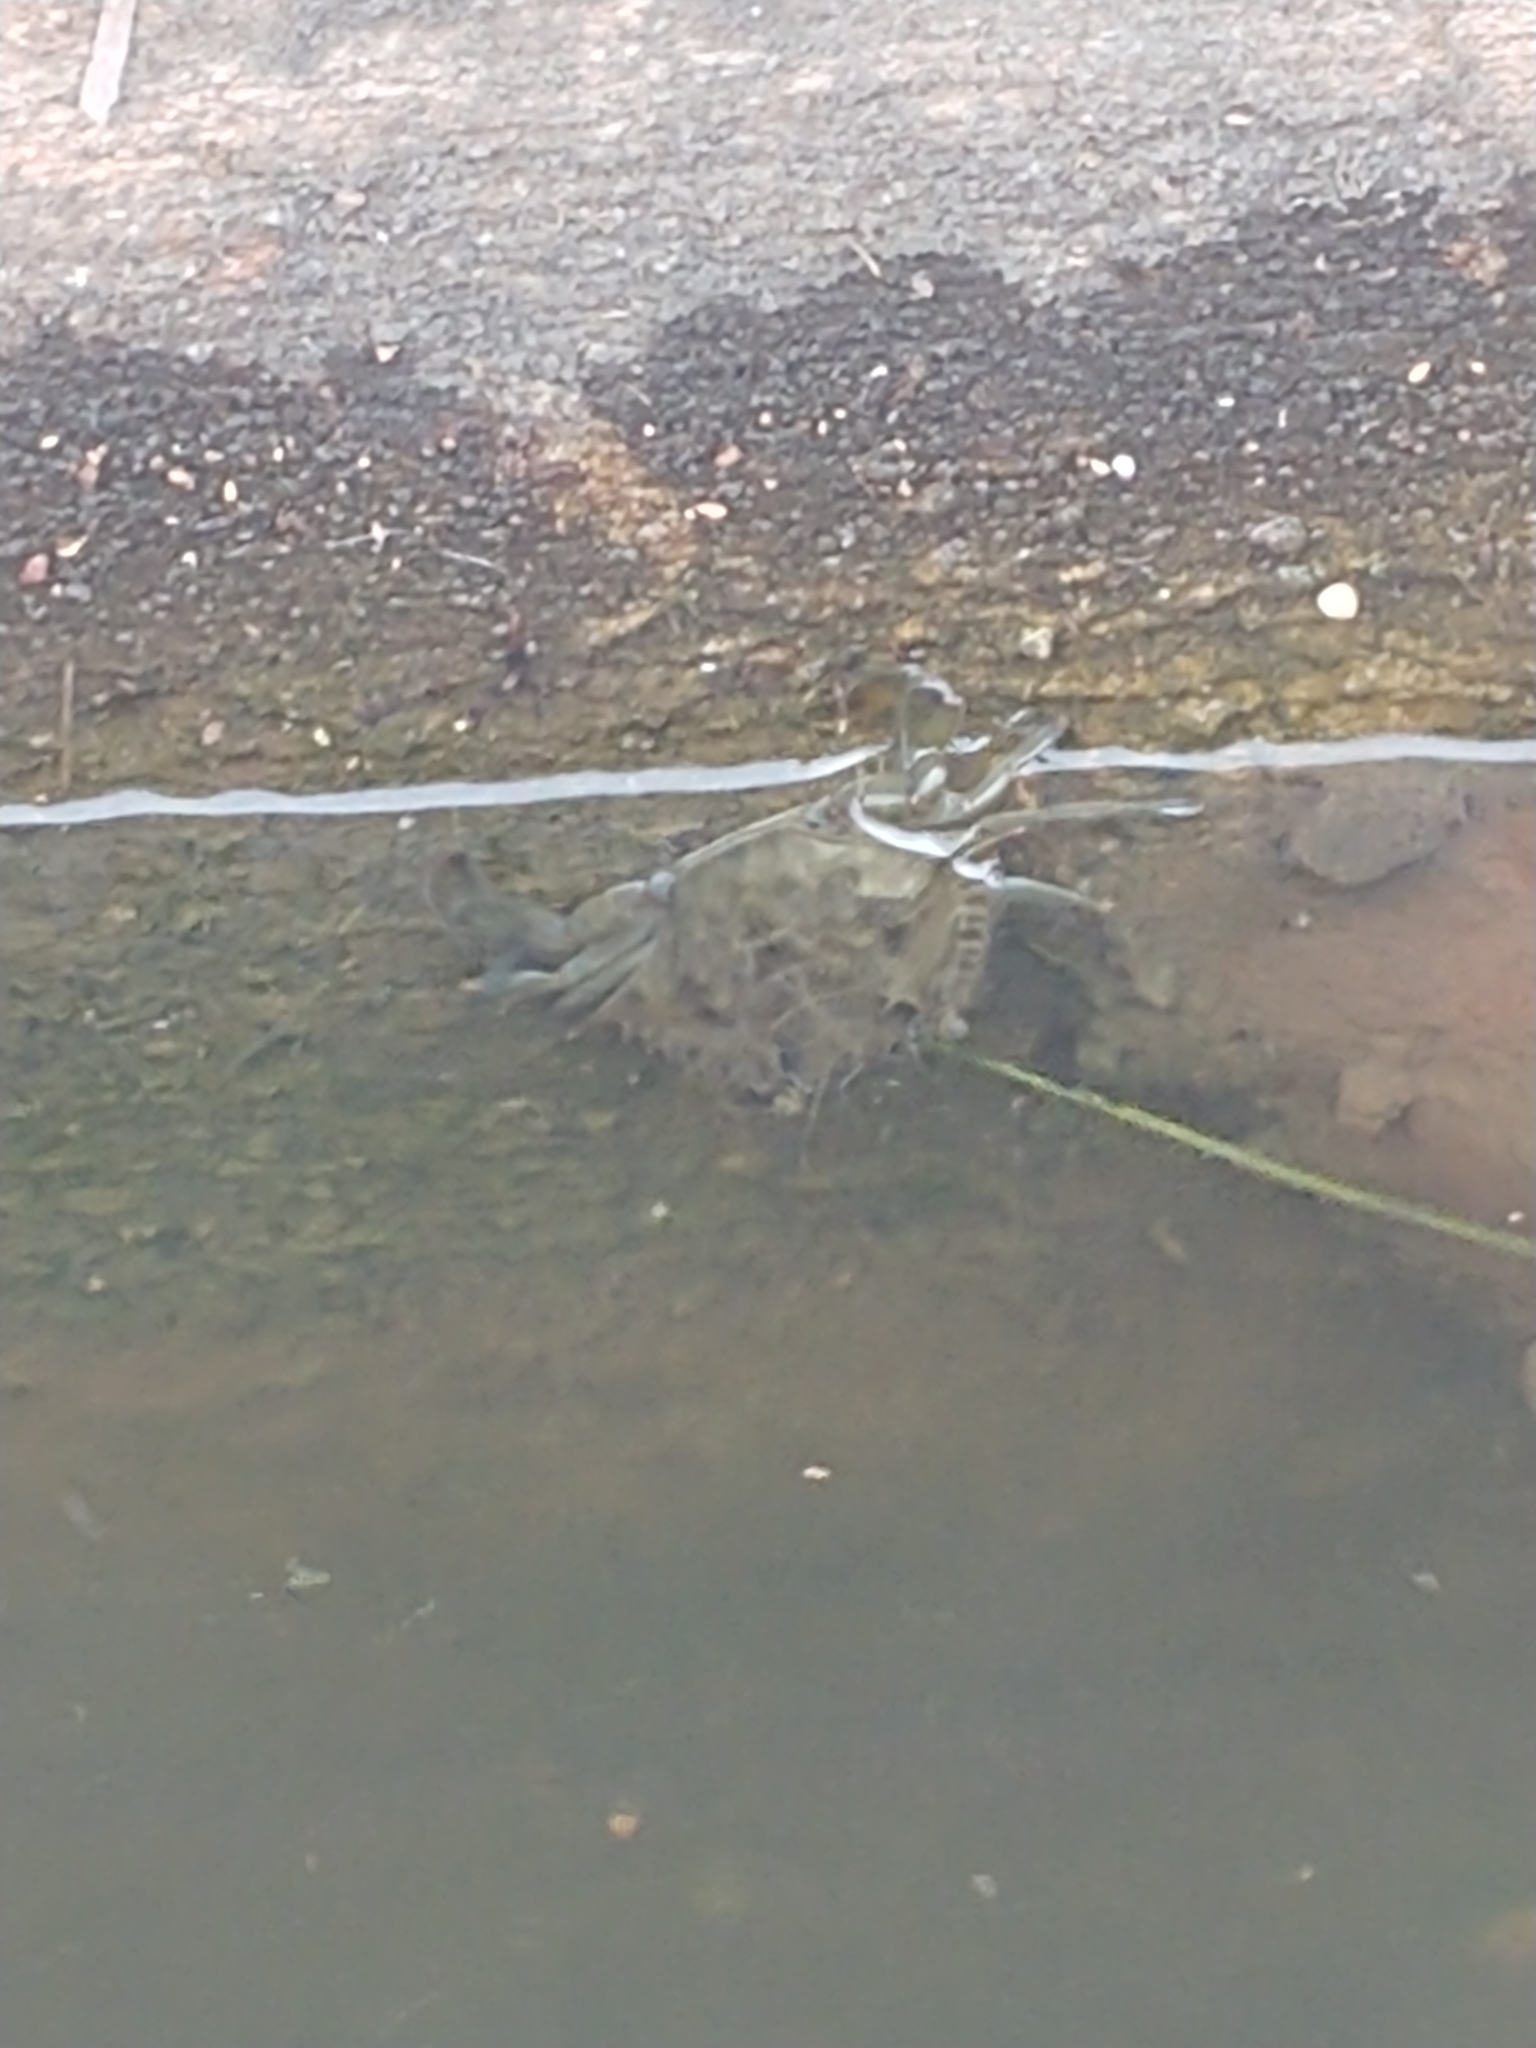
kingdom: Animalia
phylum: Arthropoda
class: Malacostraca
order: Decapoda
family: Portunidae
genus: Callinectes
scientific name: Callinectes sapidus
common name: Blue crab
